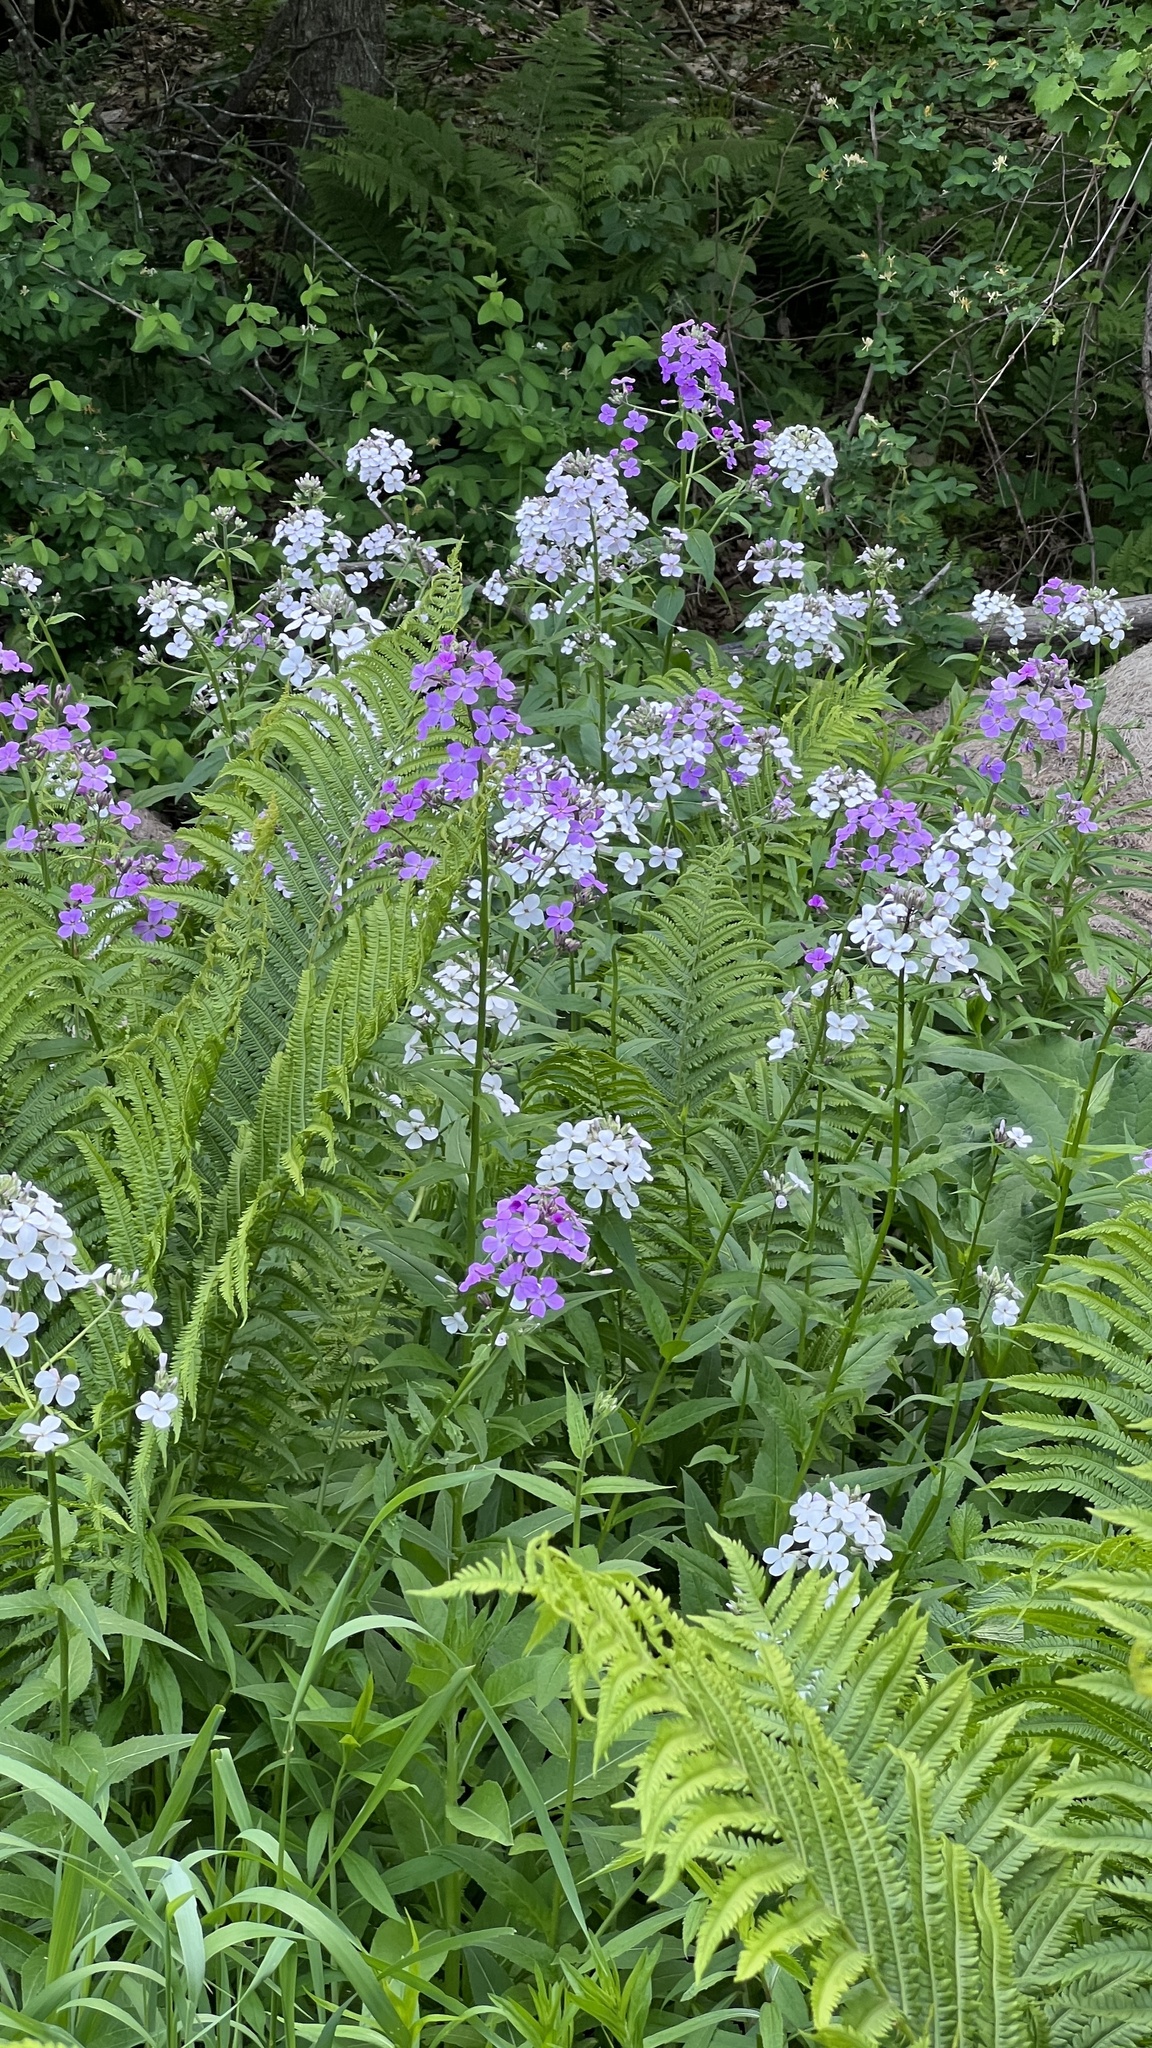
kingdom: Plantae
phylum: Tracheophyta
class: Magnoliopsida
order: Brassicales
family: Brassicaceae
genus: Hesperis
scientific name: Hesperis matronalis
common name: Dame's-violet
